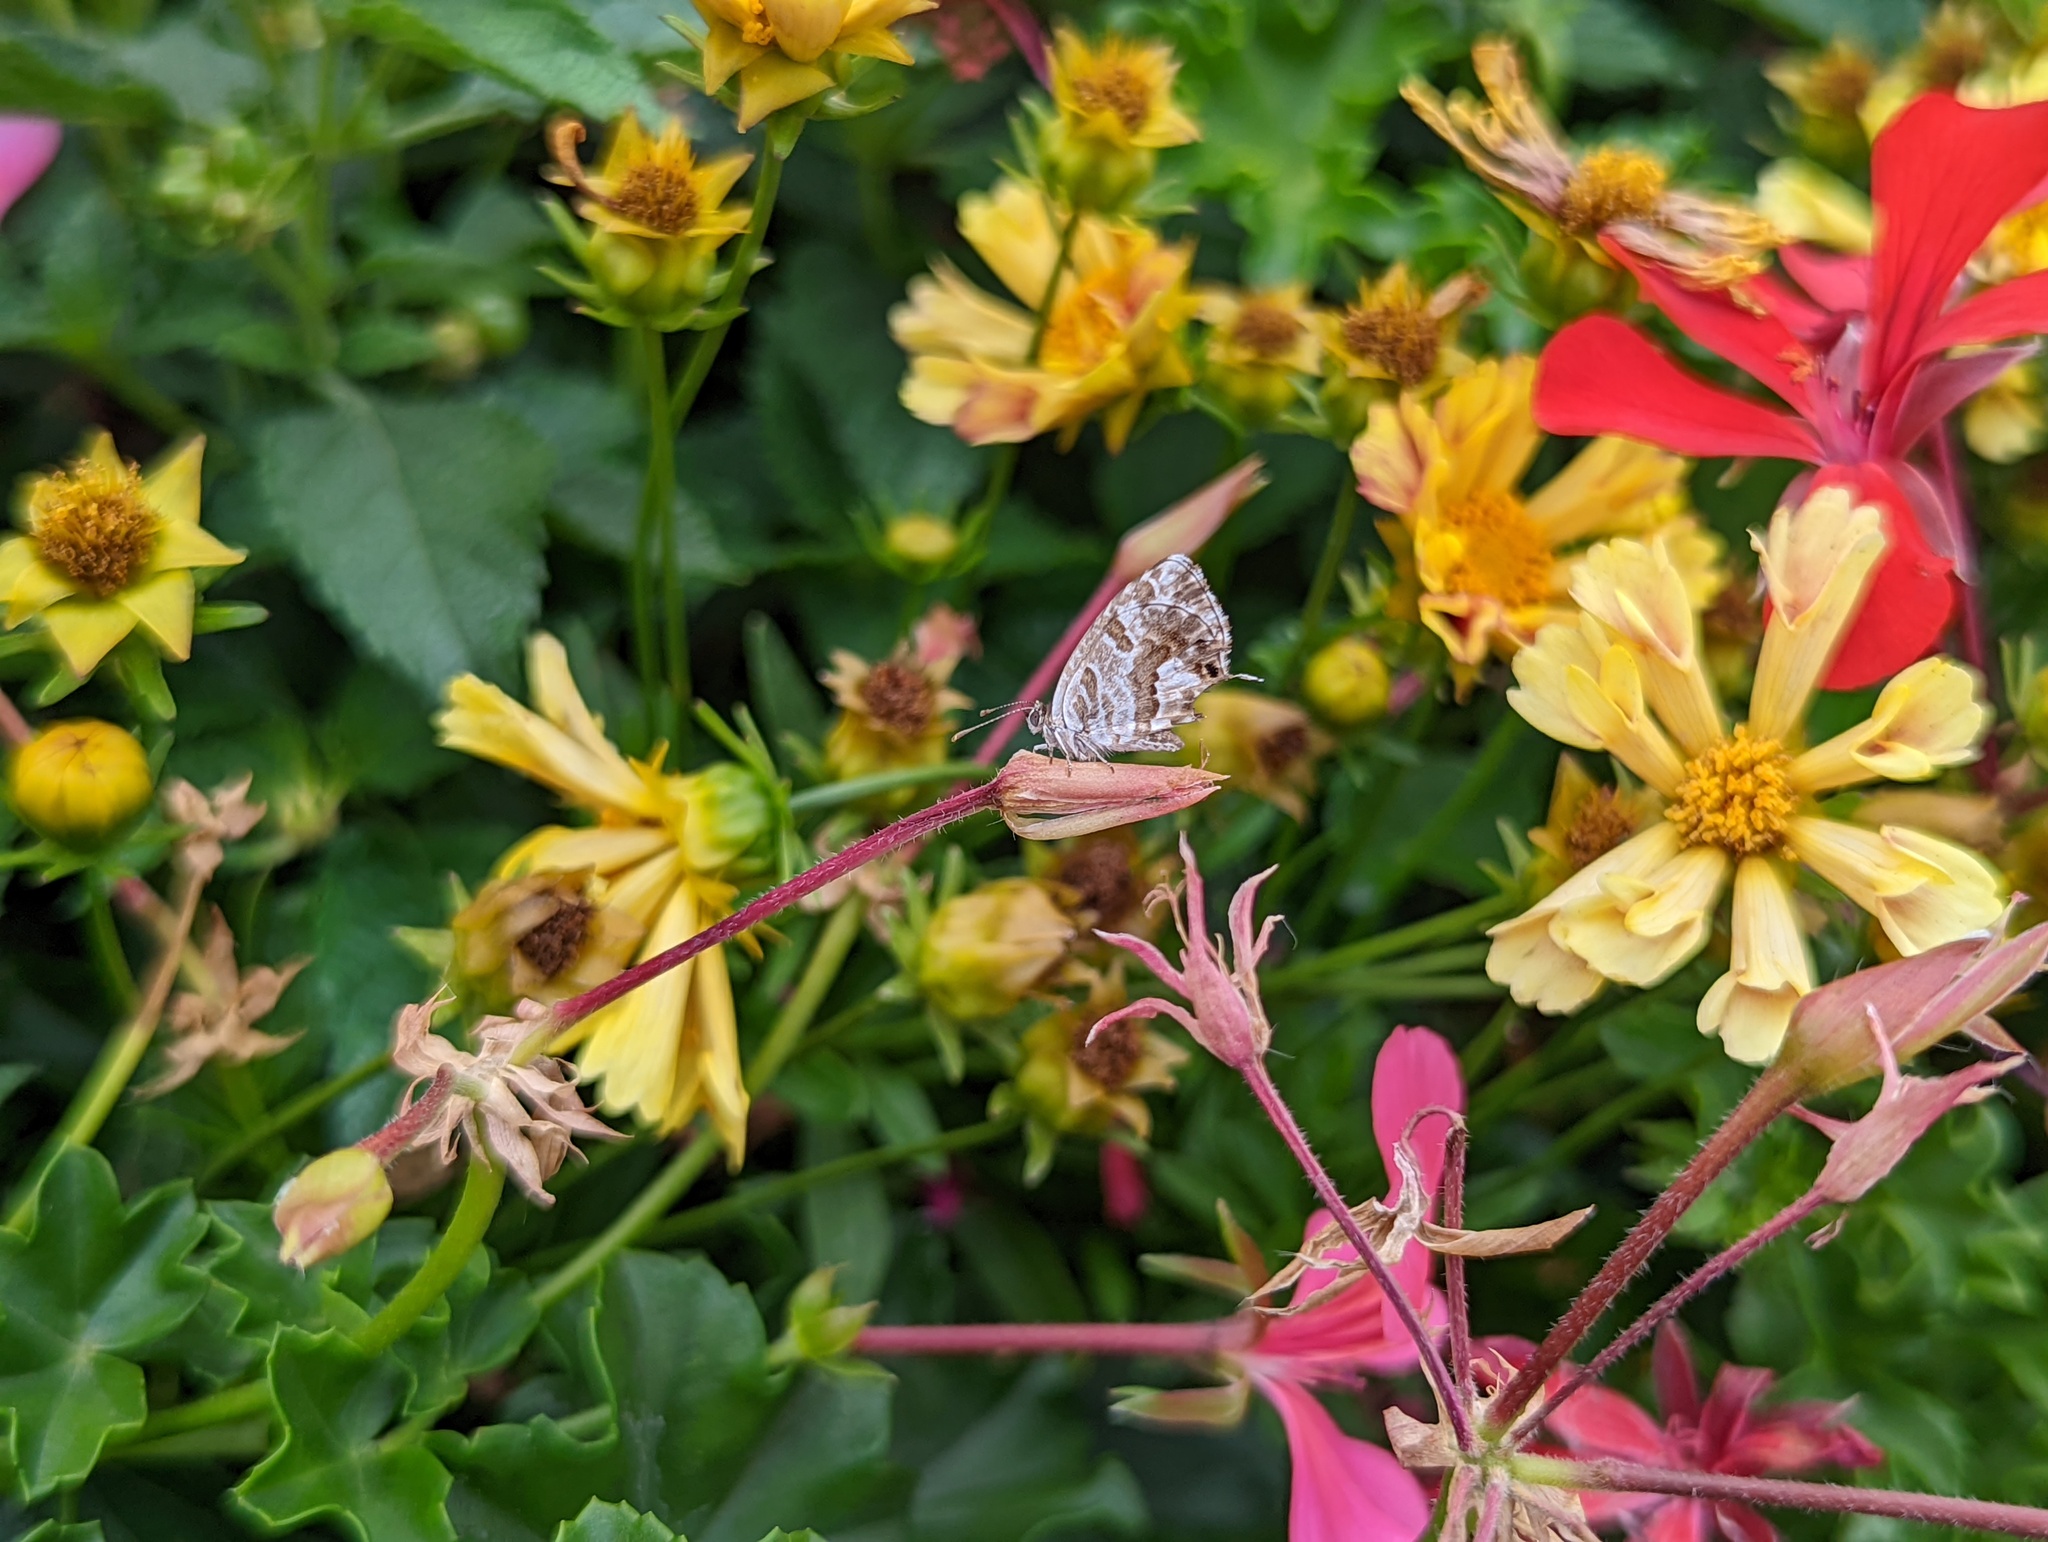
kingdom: Animalia
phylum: Arthropoda
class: Insecta
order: Lepidoptera
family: Lycaenidae
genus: Cacyreus
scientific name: Cacyreus marshalli
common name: Geranium bronze
